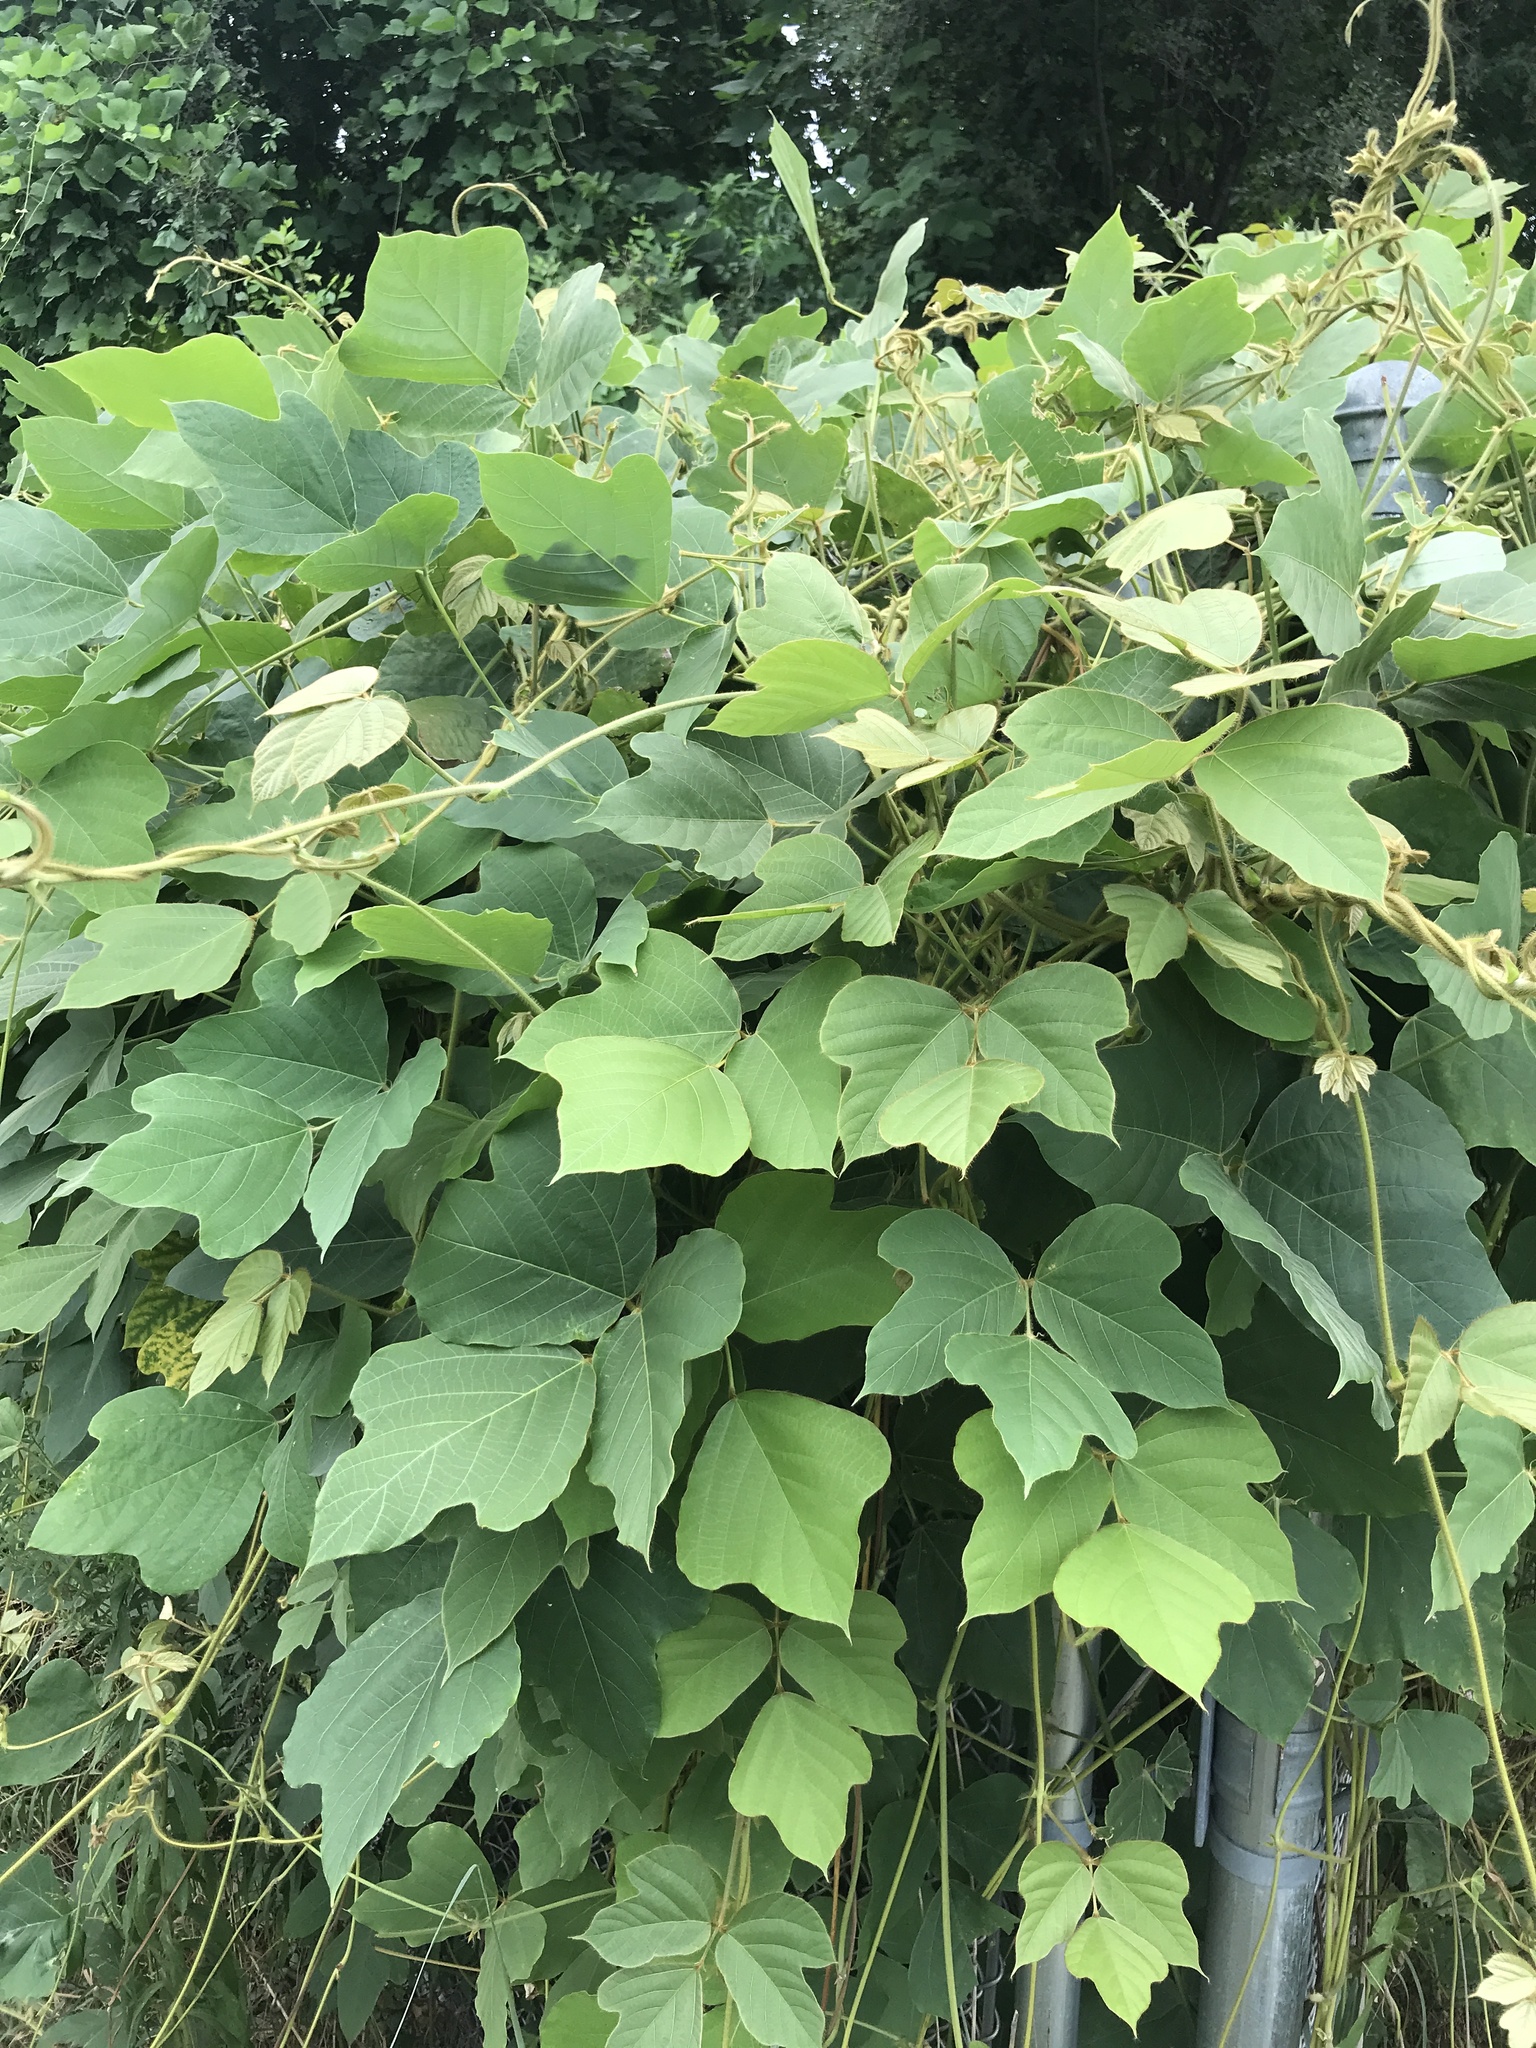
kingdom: Plantae
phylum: Tracheophyta
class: Magnoliopsida
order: Fabales
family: Fabaceae
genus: Pueraria
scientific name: Pueraria montana
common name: Kudzu
